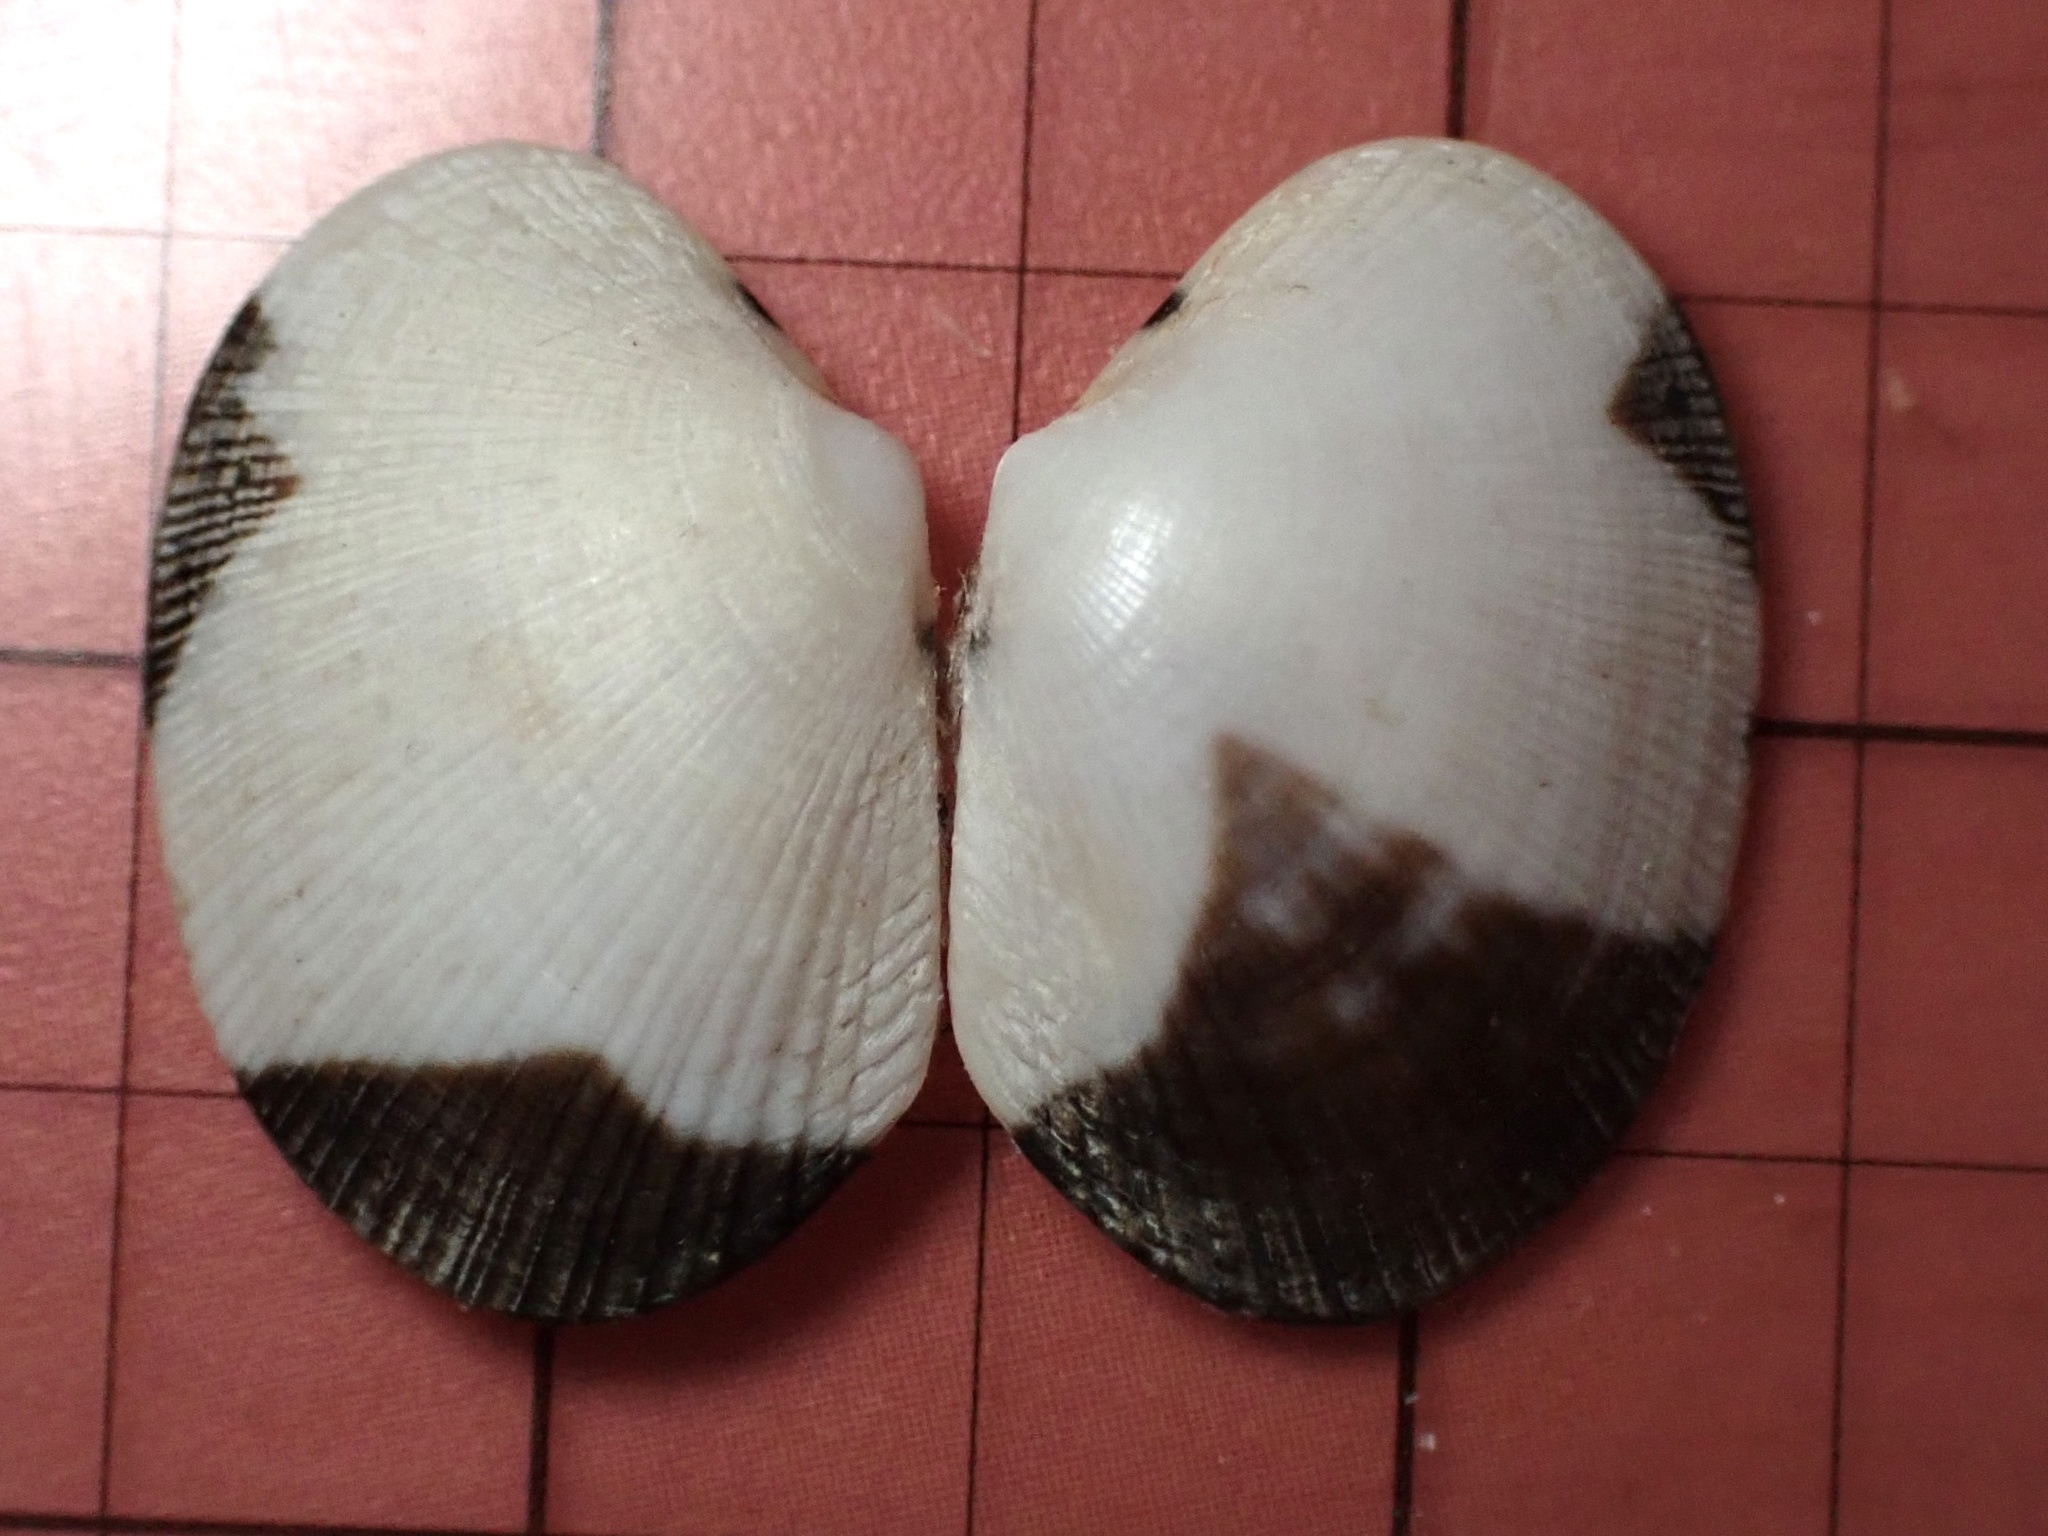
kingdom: Animalia
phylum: Mollusca
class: Bivalvia
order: Venerida
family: Veneridae
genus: Ruditapes
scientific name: Ruditapes philippinarum
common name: Manila clam
